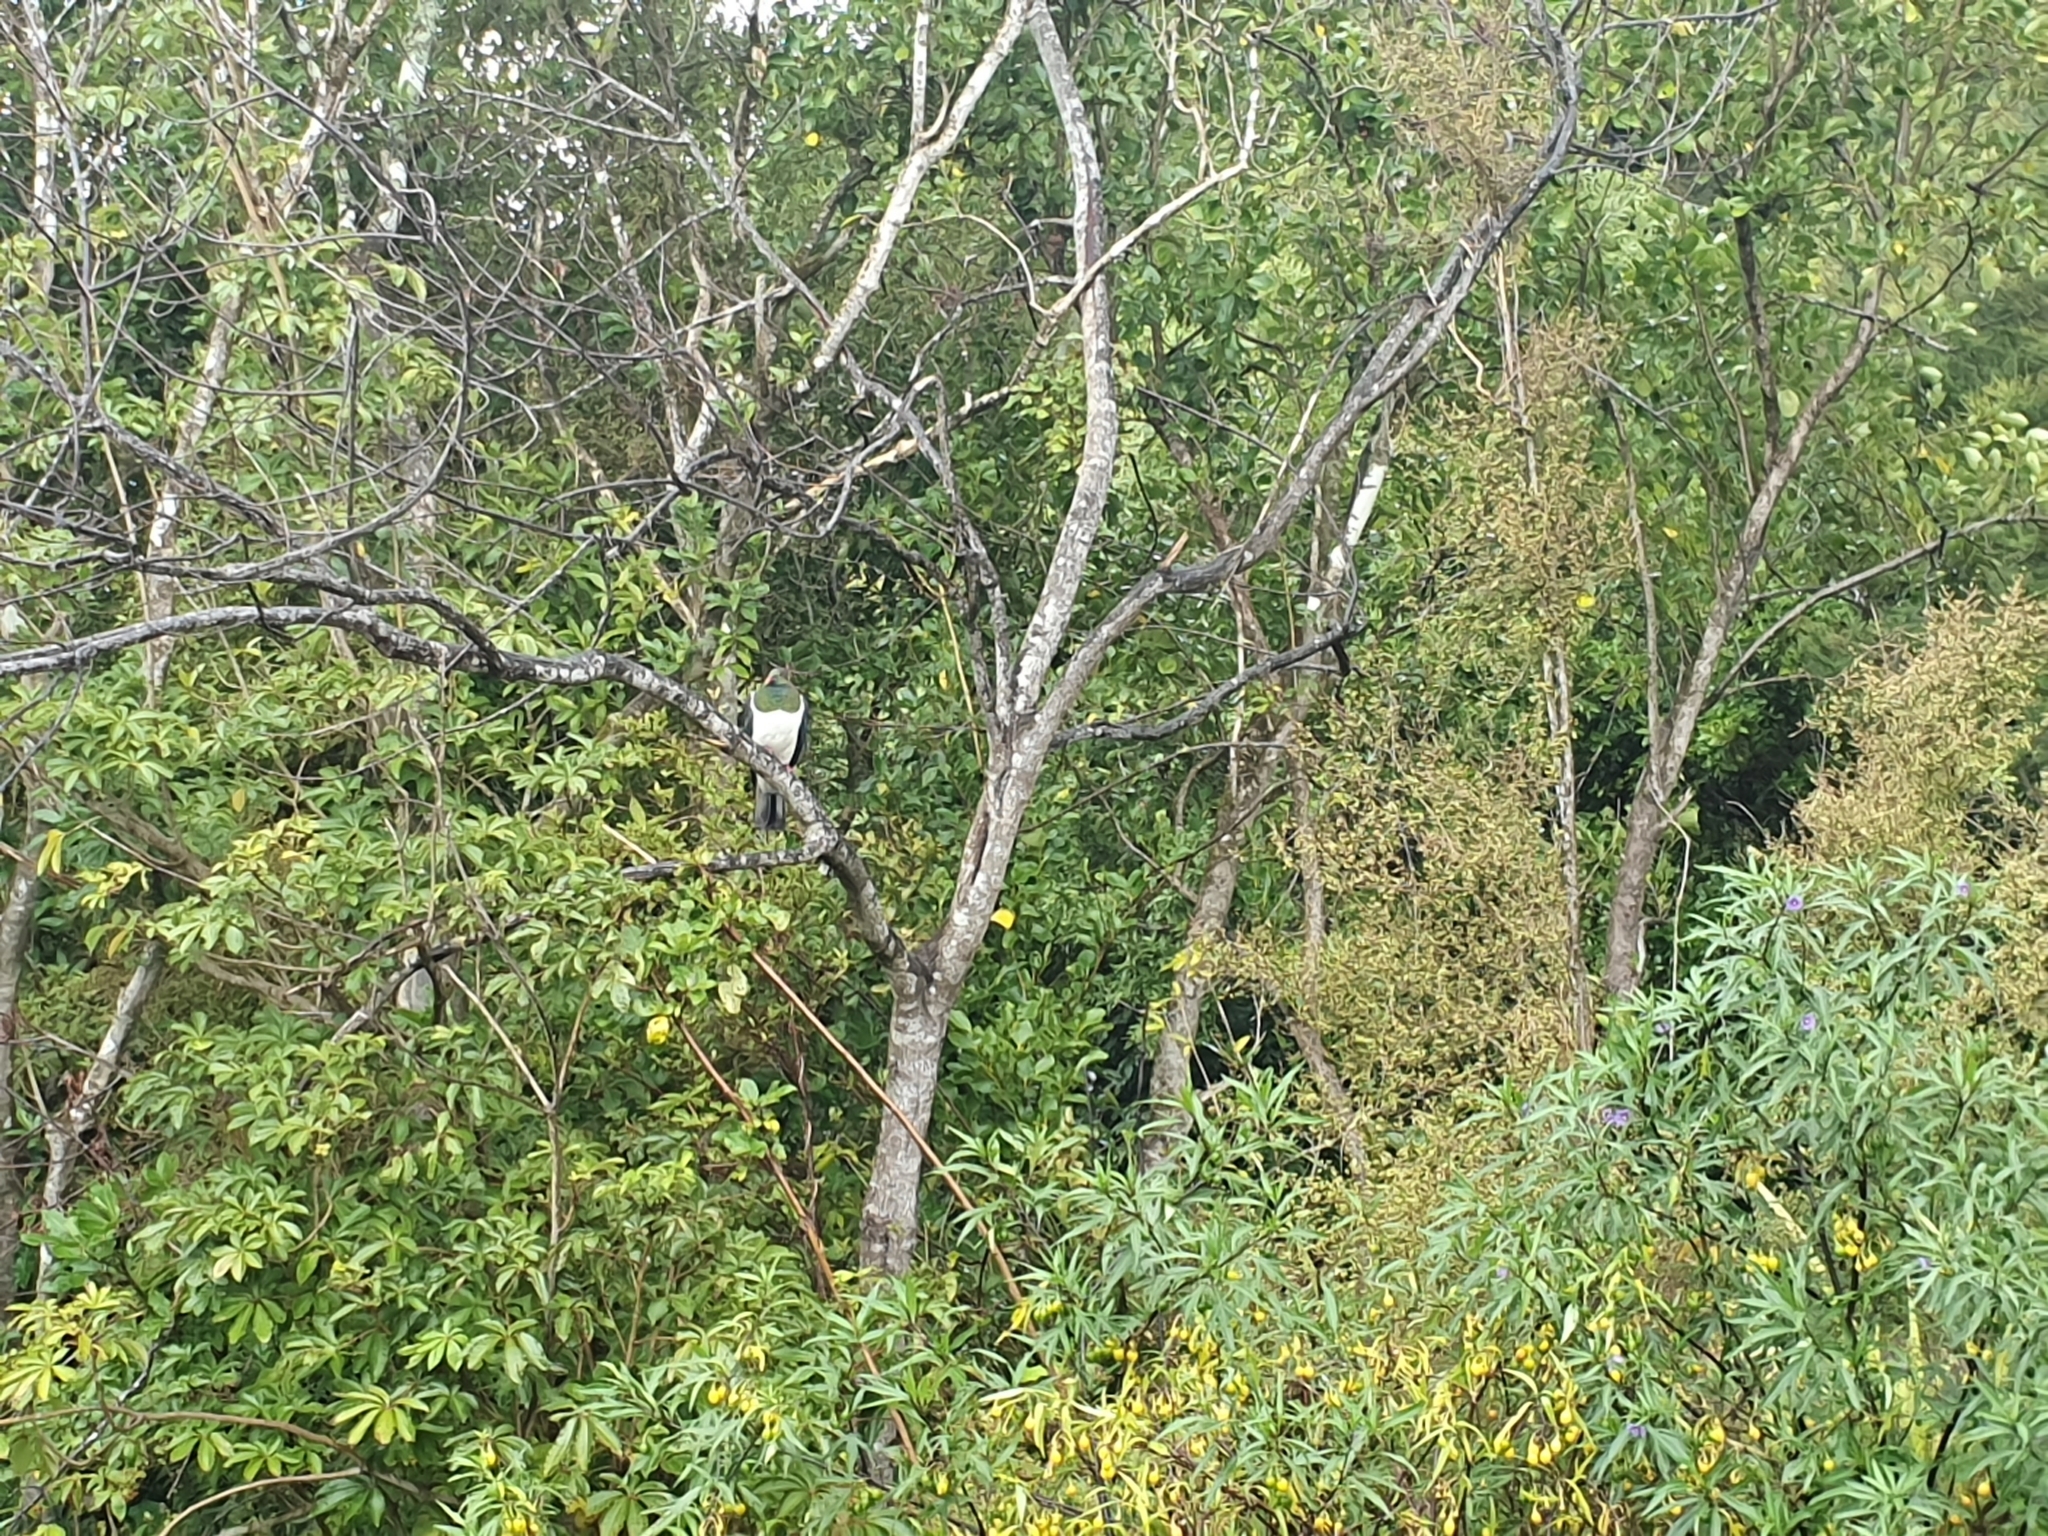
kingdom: Animalia
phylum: Chordata
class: Aves
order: Columbiformes
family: Columbidae
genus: Hemiphaga
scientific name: Hemiphaga novaeseelandiae
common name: New zealand pigeon
